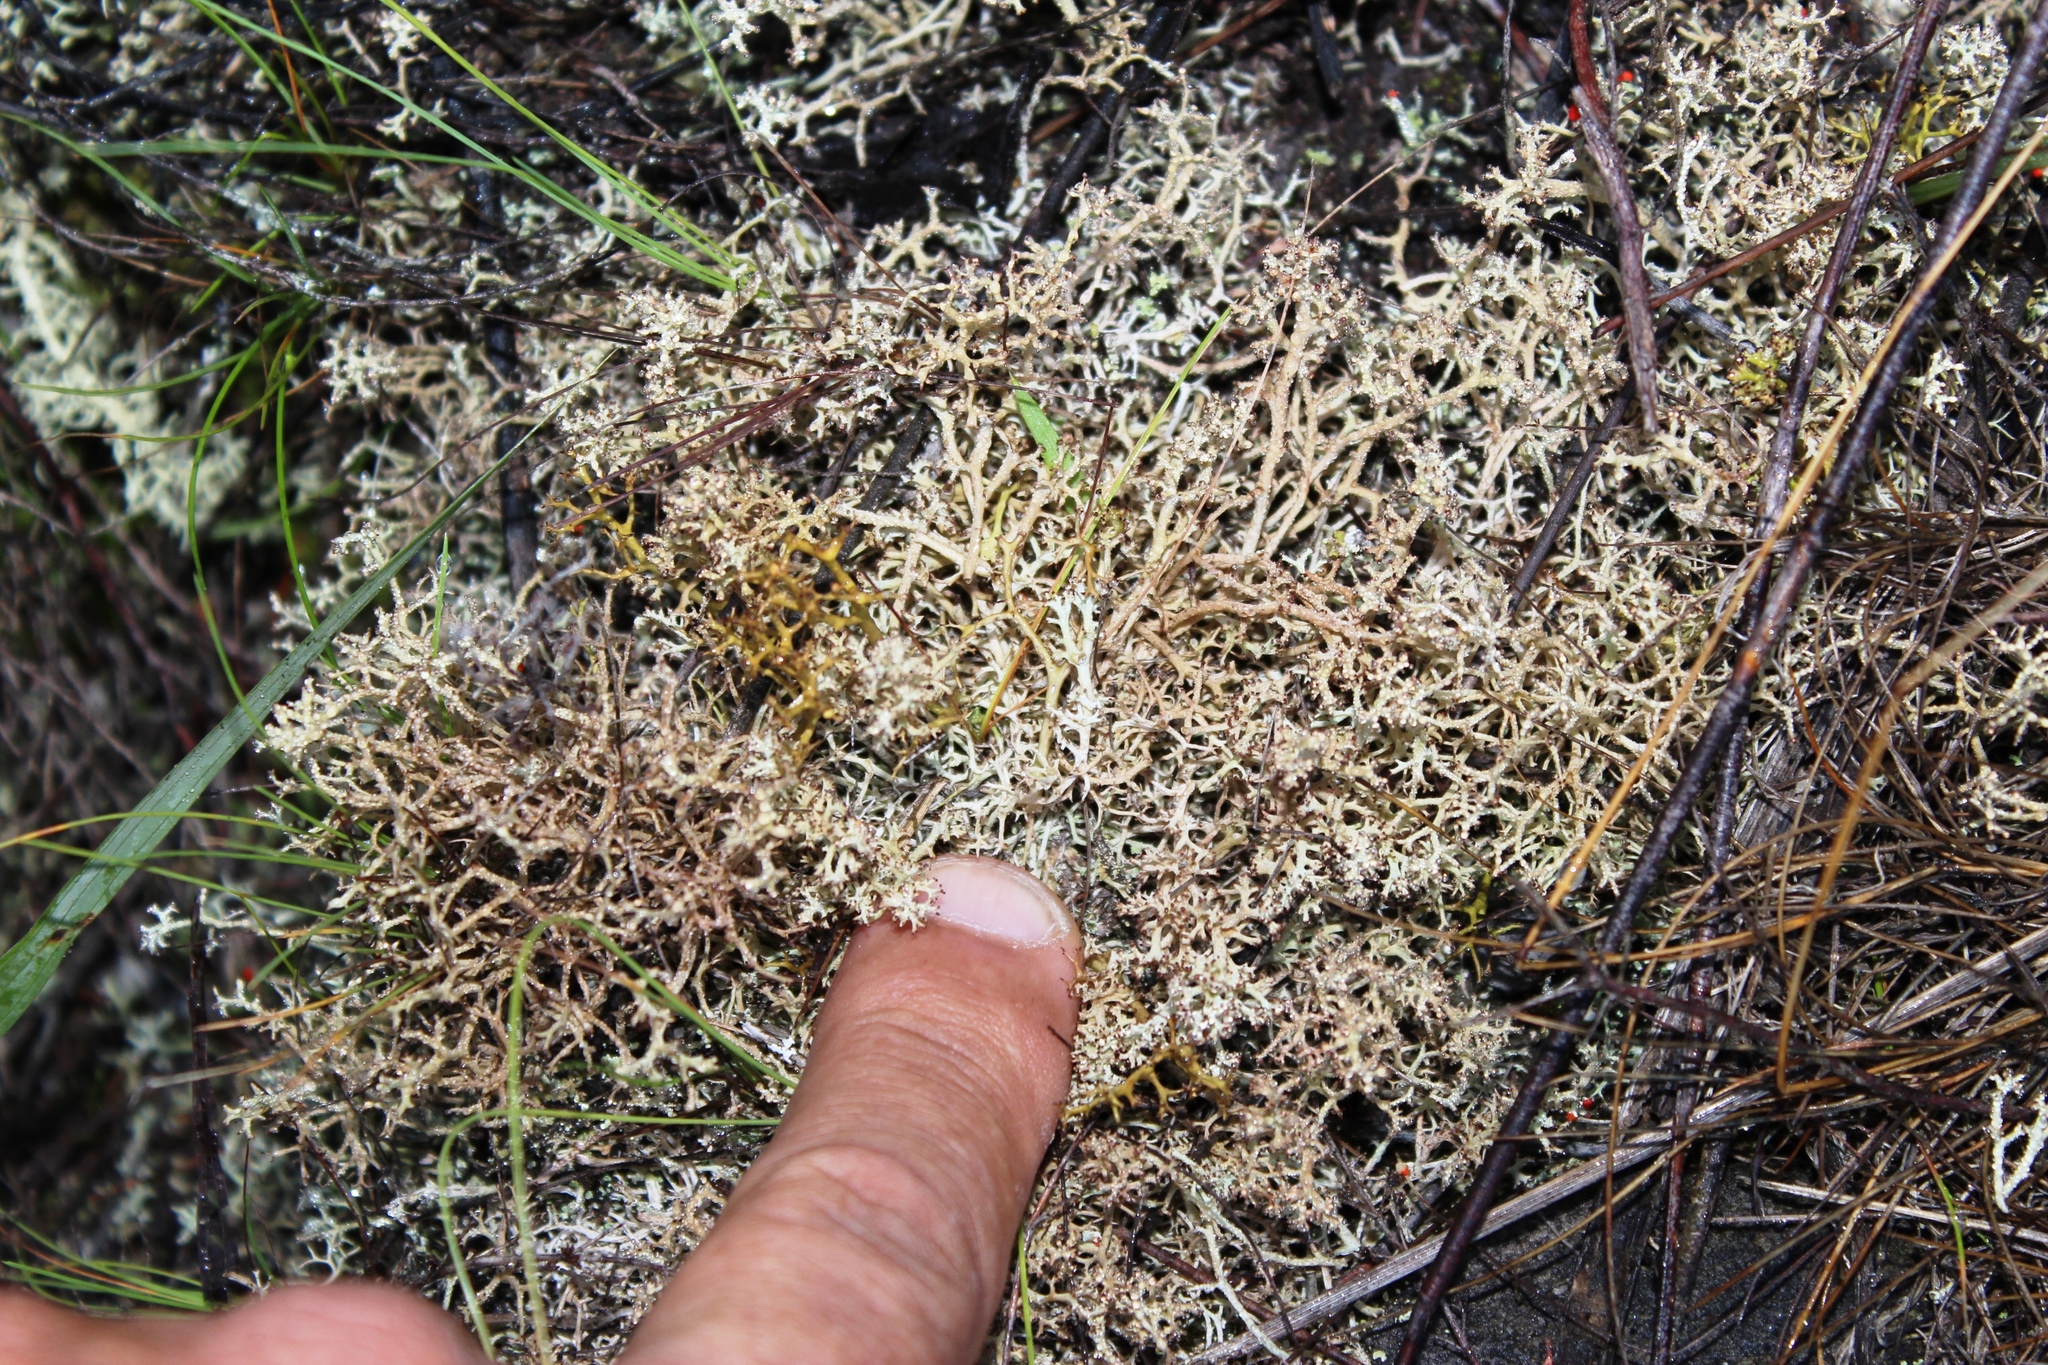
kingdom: Fungi
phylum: Ascomycota
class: Lecanoromycetes
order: Lecanorales
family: Cladoniaceae
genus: Cladonia
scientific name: Cladonia
